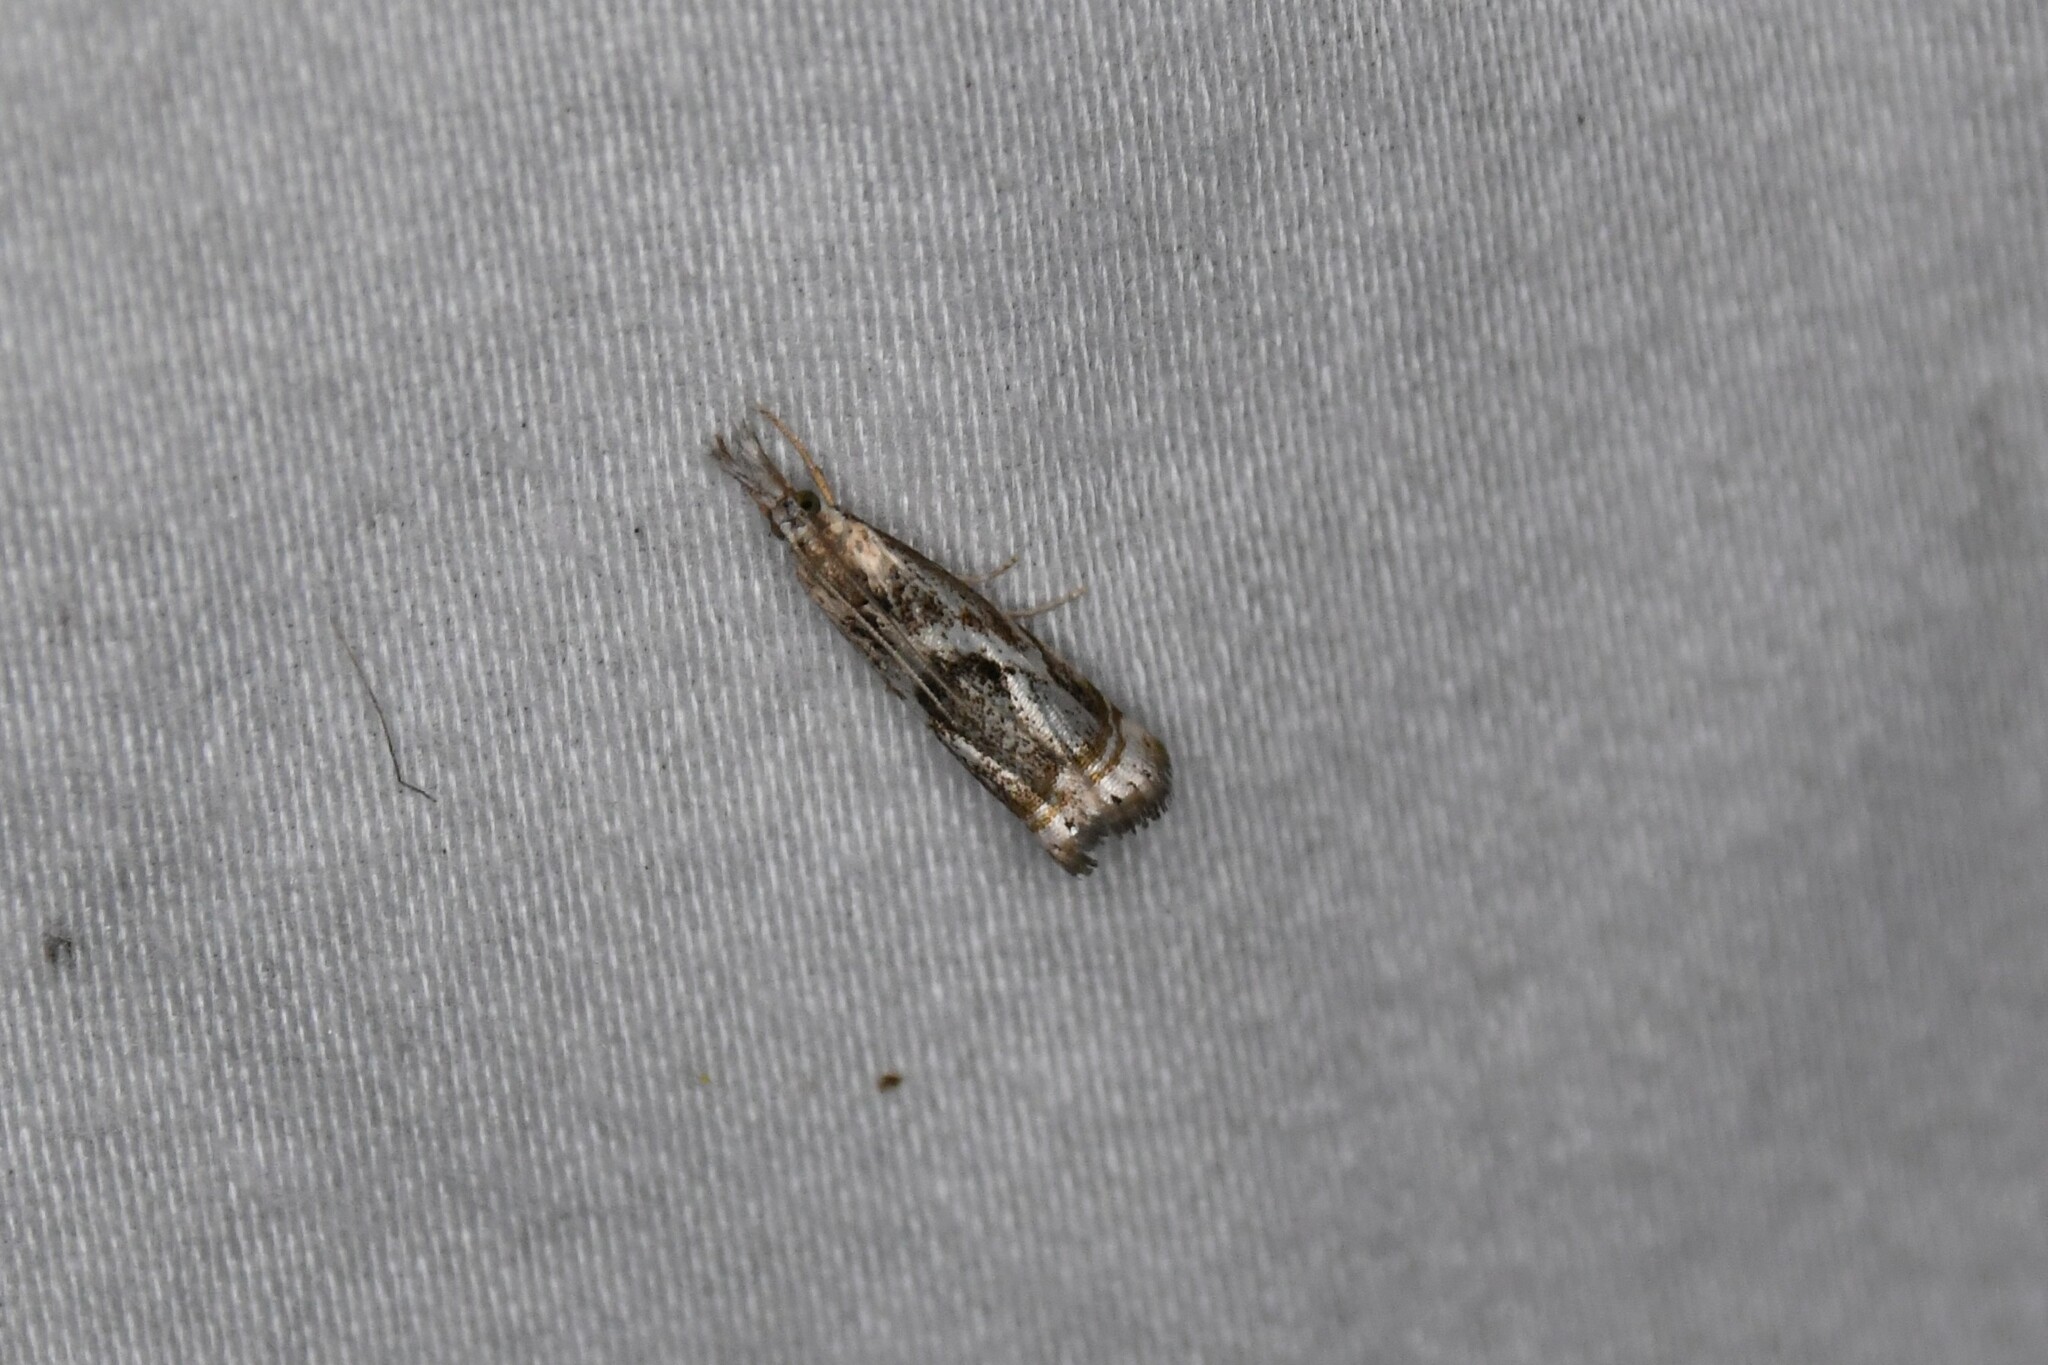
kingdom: Animalia
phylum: Arthropoda
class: Insecta
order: Lepidoptera
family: Crambidae
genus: Microcrambus
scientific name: Microcrambus elegans
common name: Elegant grass-veneer
